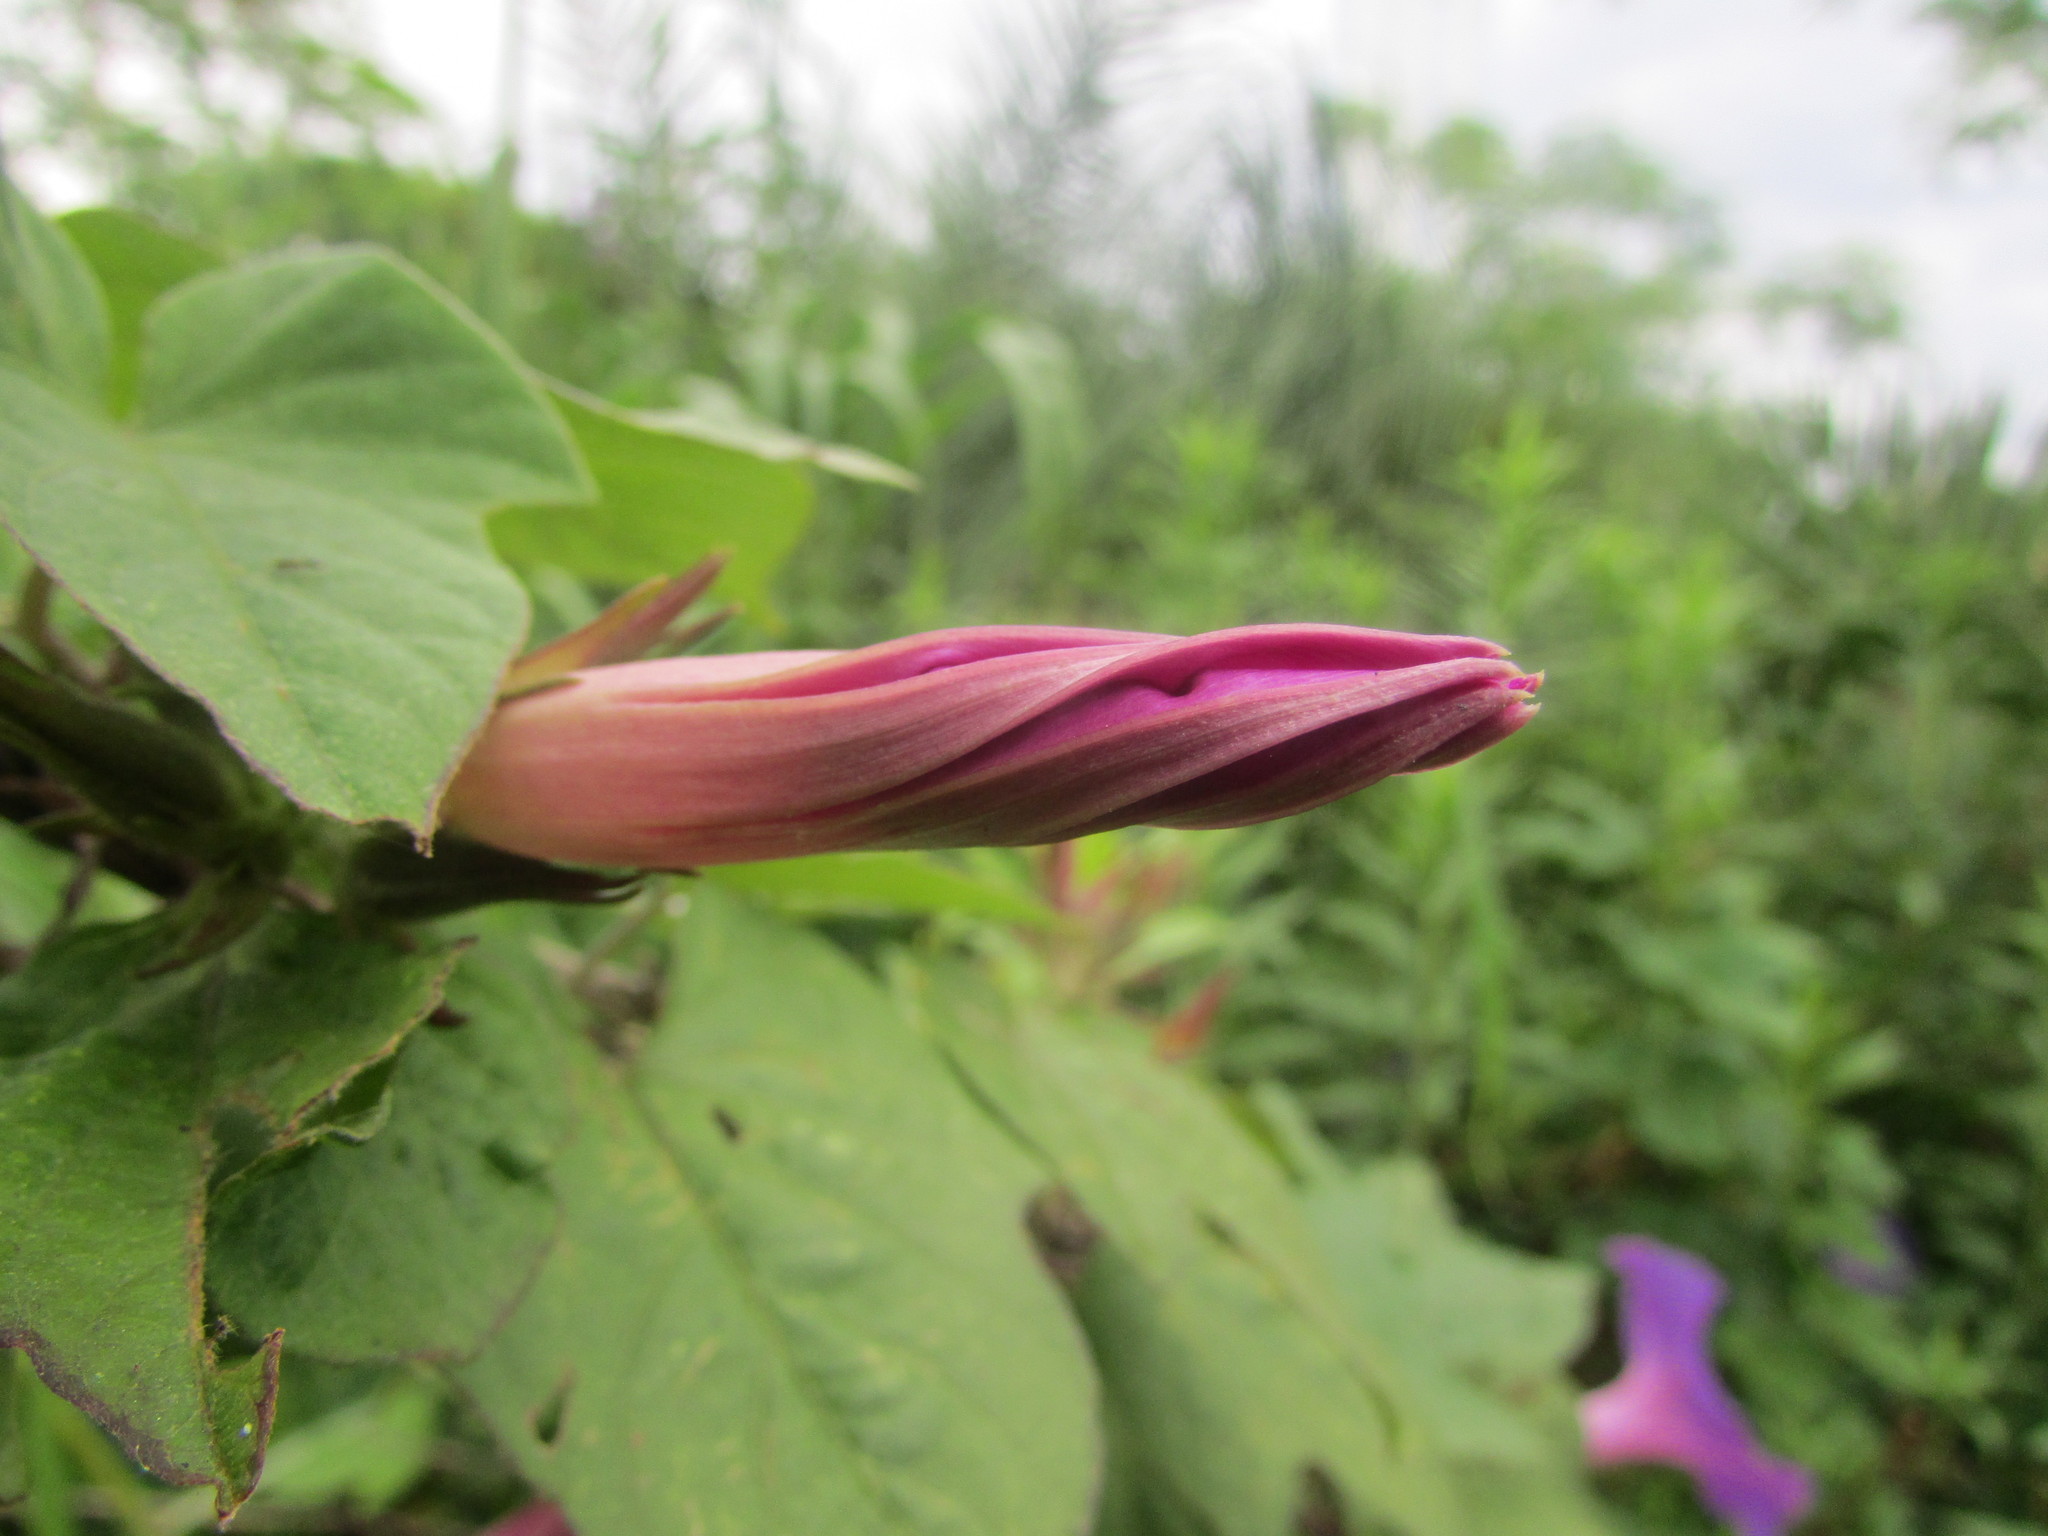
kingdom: Plantae
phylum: Tracheophyta
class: Magnoliopsida
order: Solanales
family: Convolvulaceae
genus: Ipomoea
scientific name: Ipomoea indica
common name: Blue dawnflower
